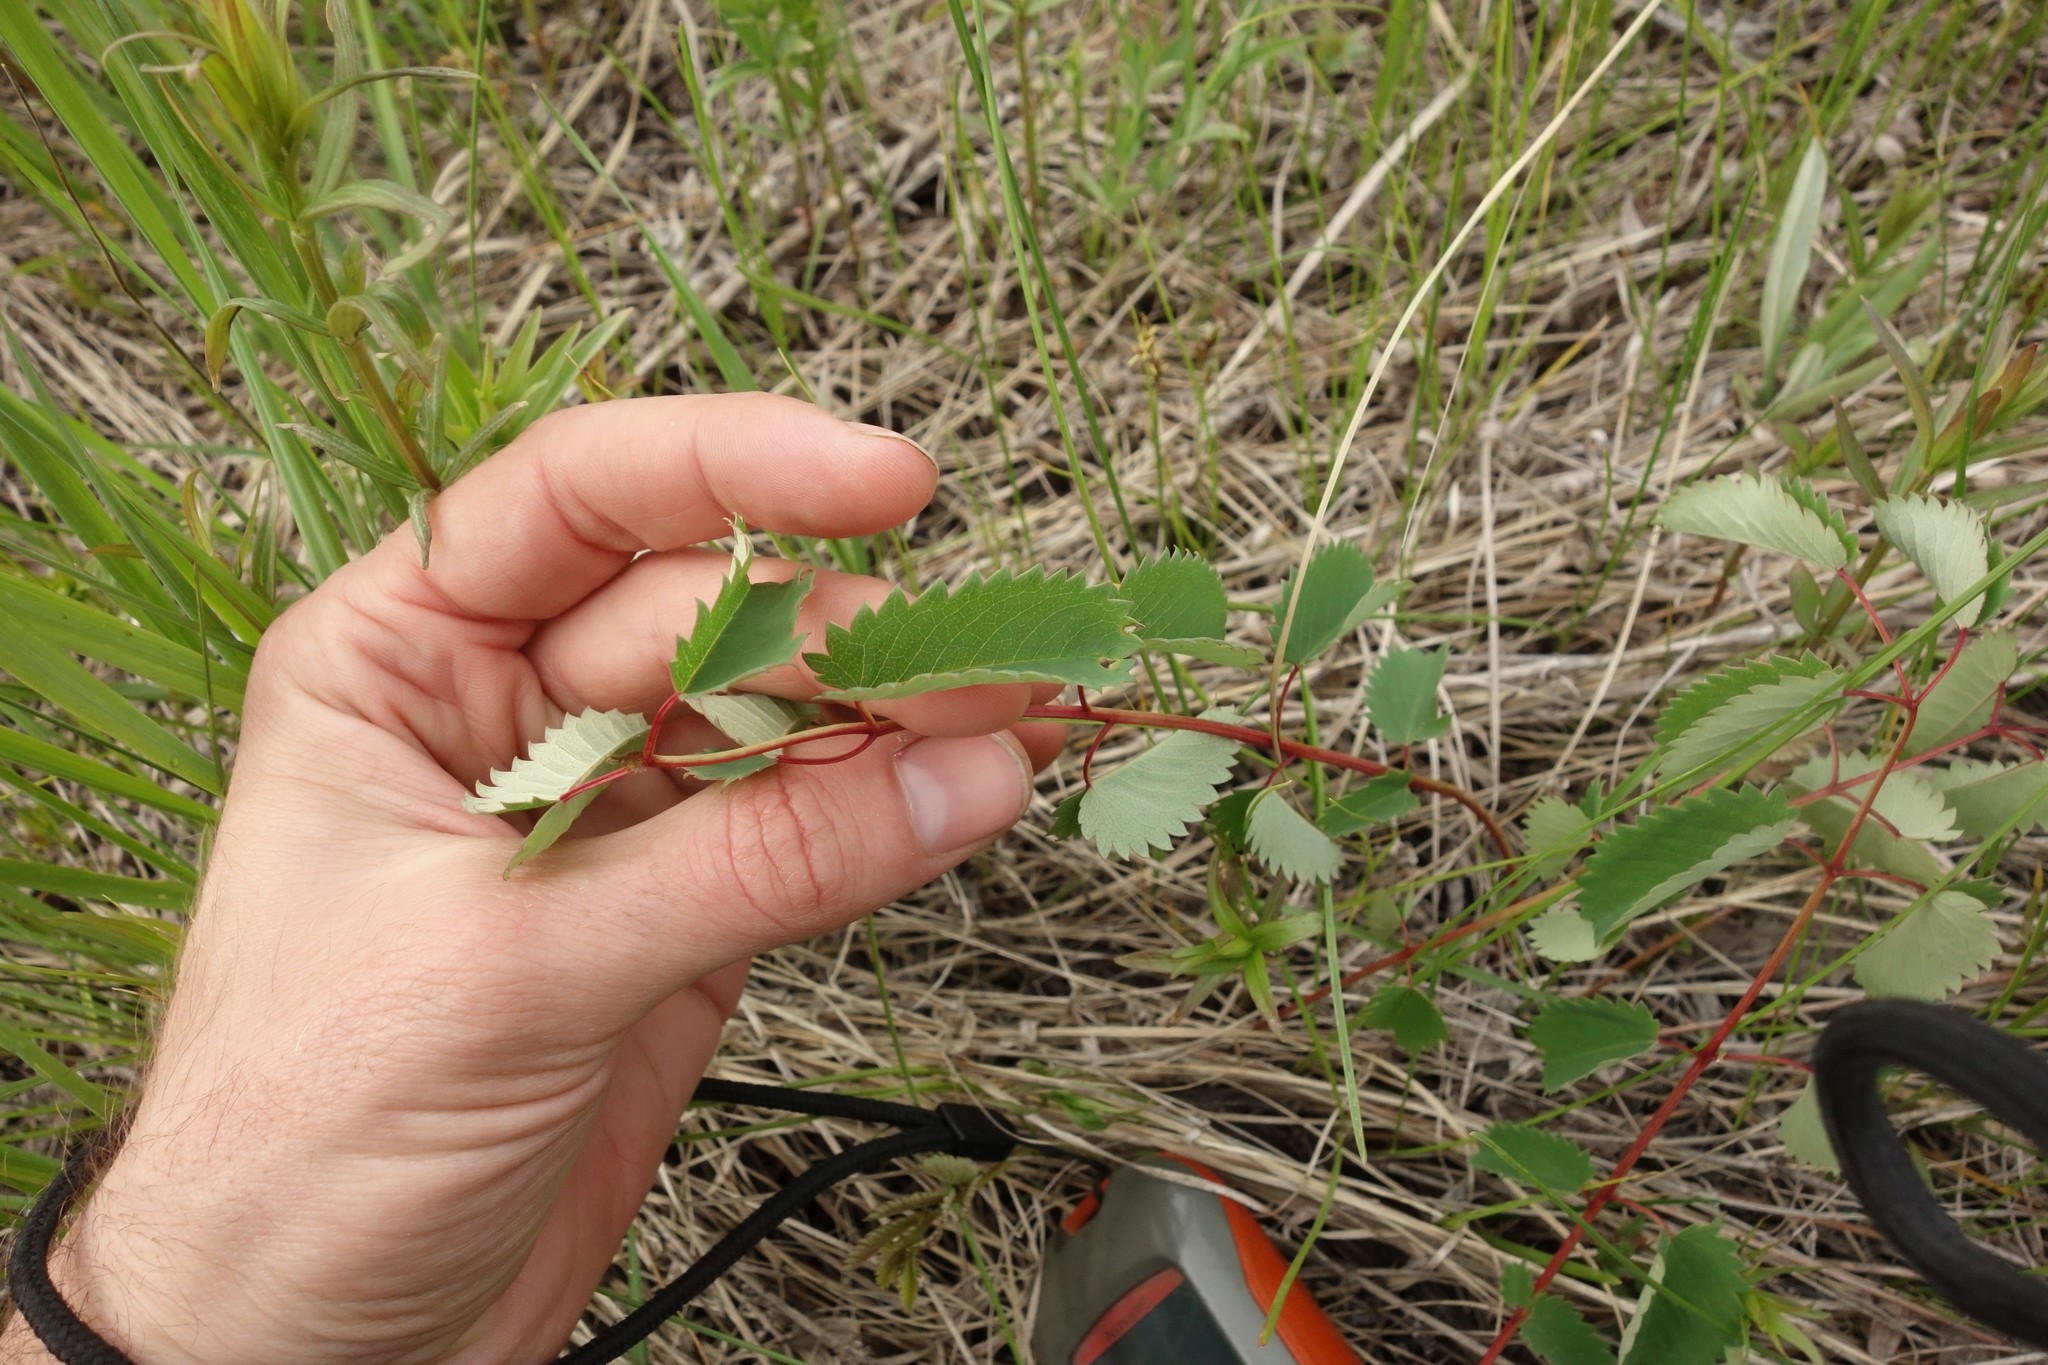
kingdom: Plantae
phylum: Tracheophyta
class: Magnoliopsida
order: Rosales
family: Rosaceae
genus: Sanguisorba
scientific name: Sanguisorba officinalis
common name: Great burnet
